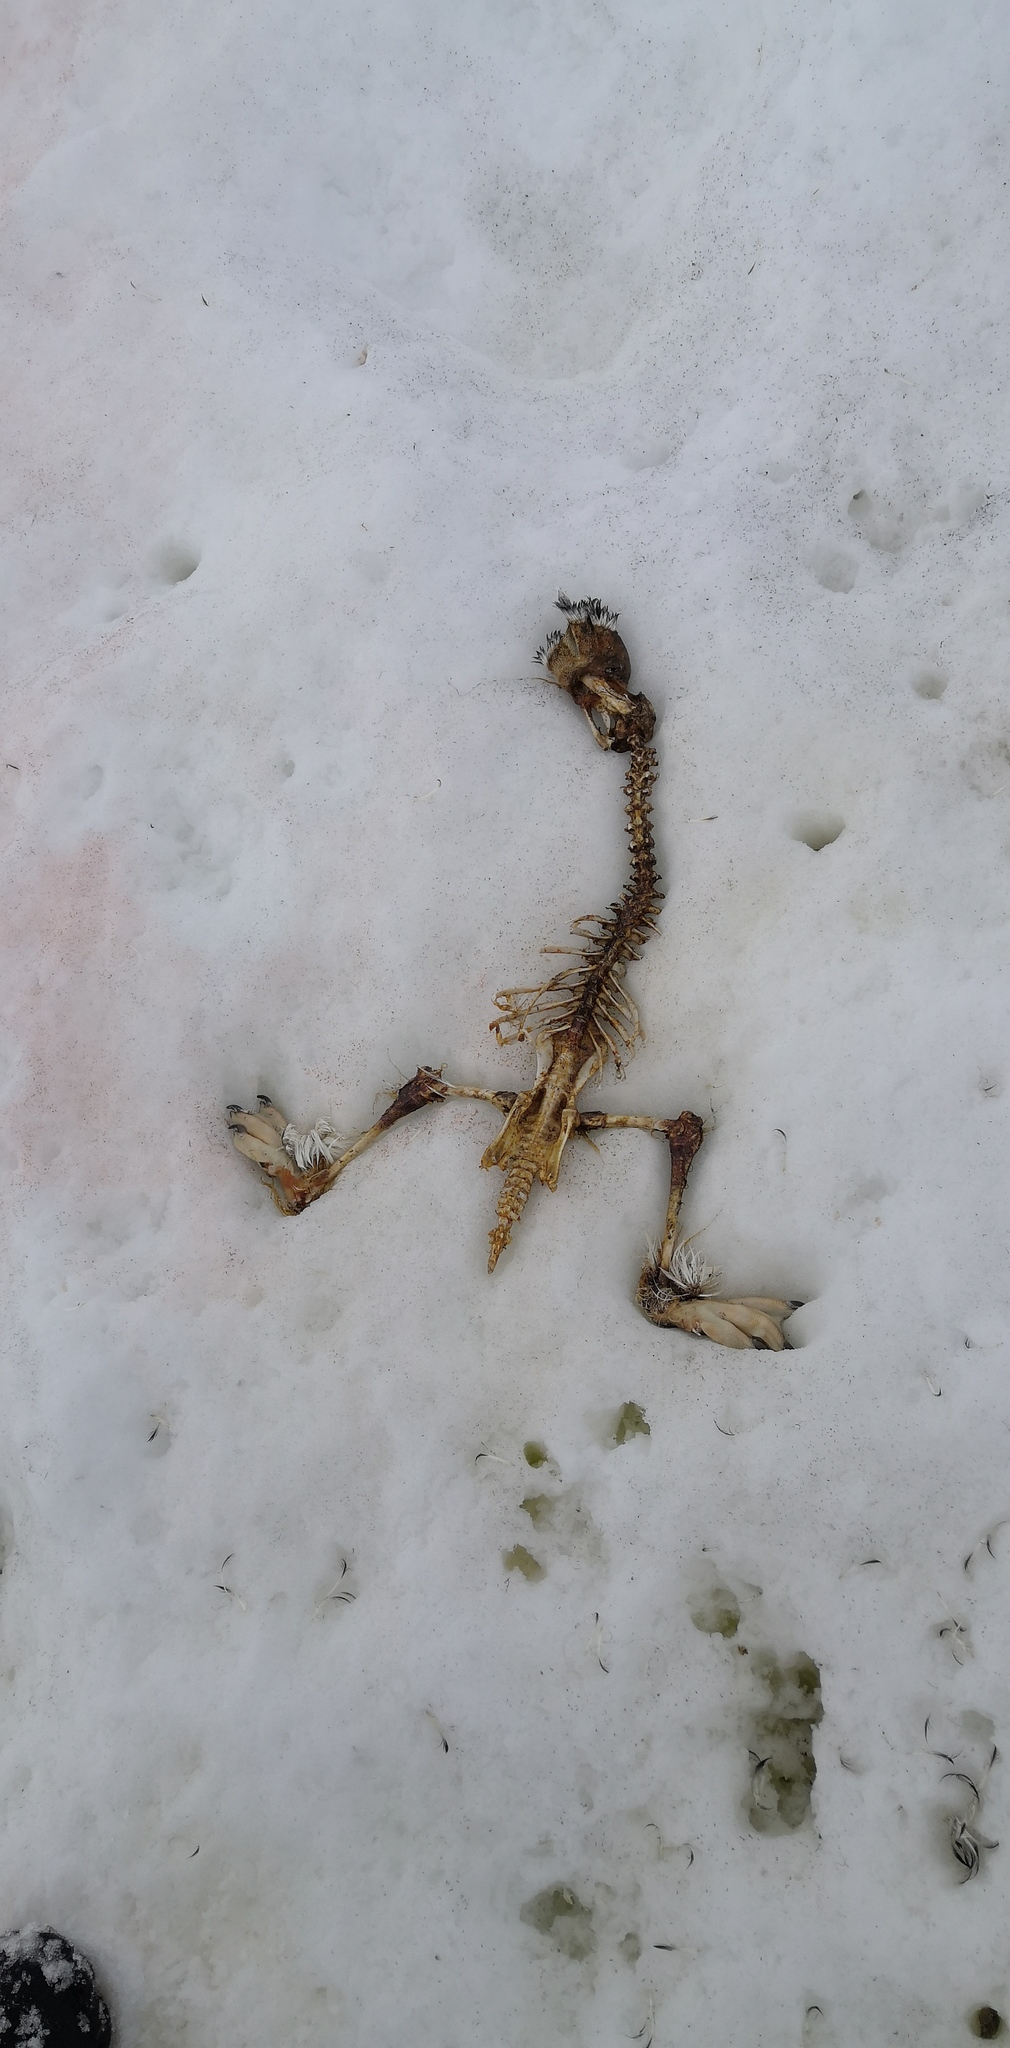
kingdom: Animalia
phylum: Chordata
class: Aves
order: Sphenisciformes
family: Spheniscidae
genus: Pygoscelis
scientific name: Pygoscelis papua
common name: Gentoo penguin
